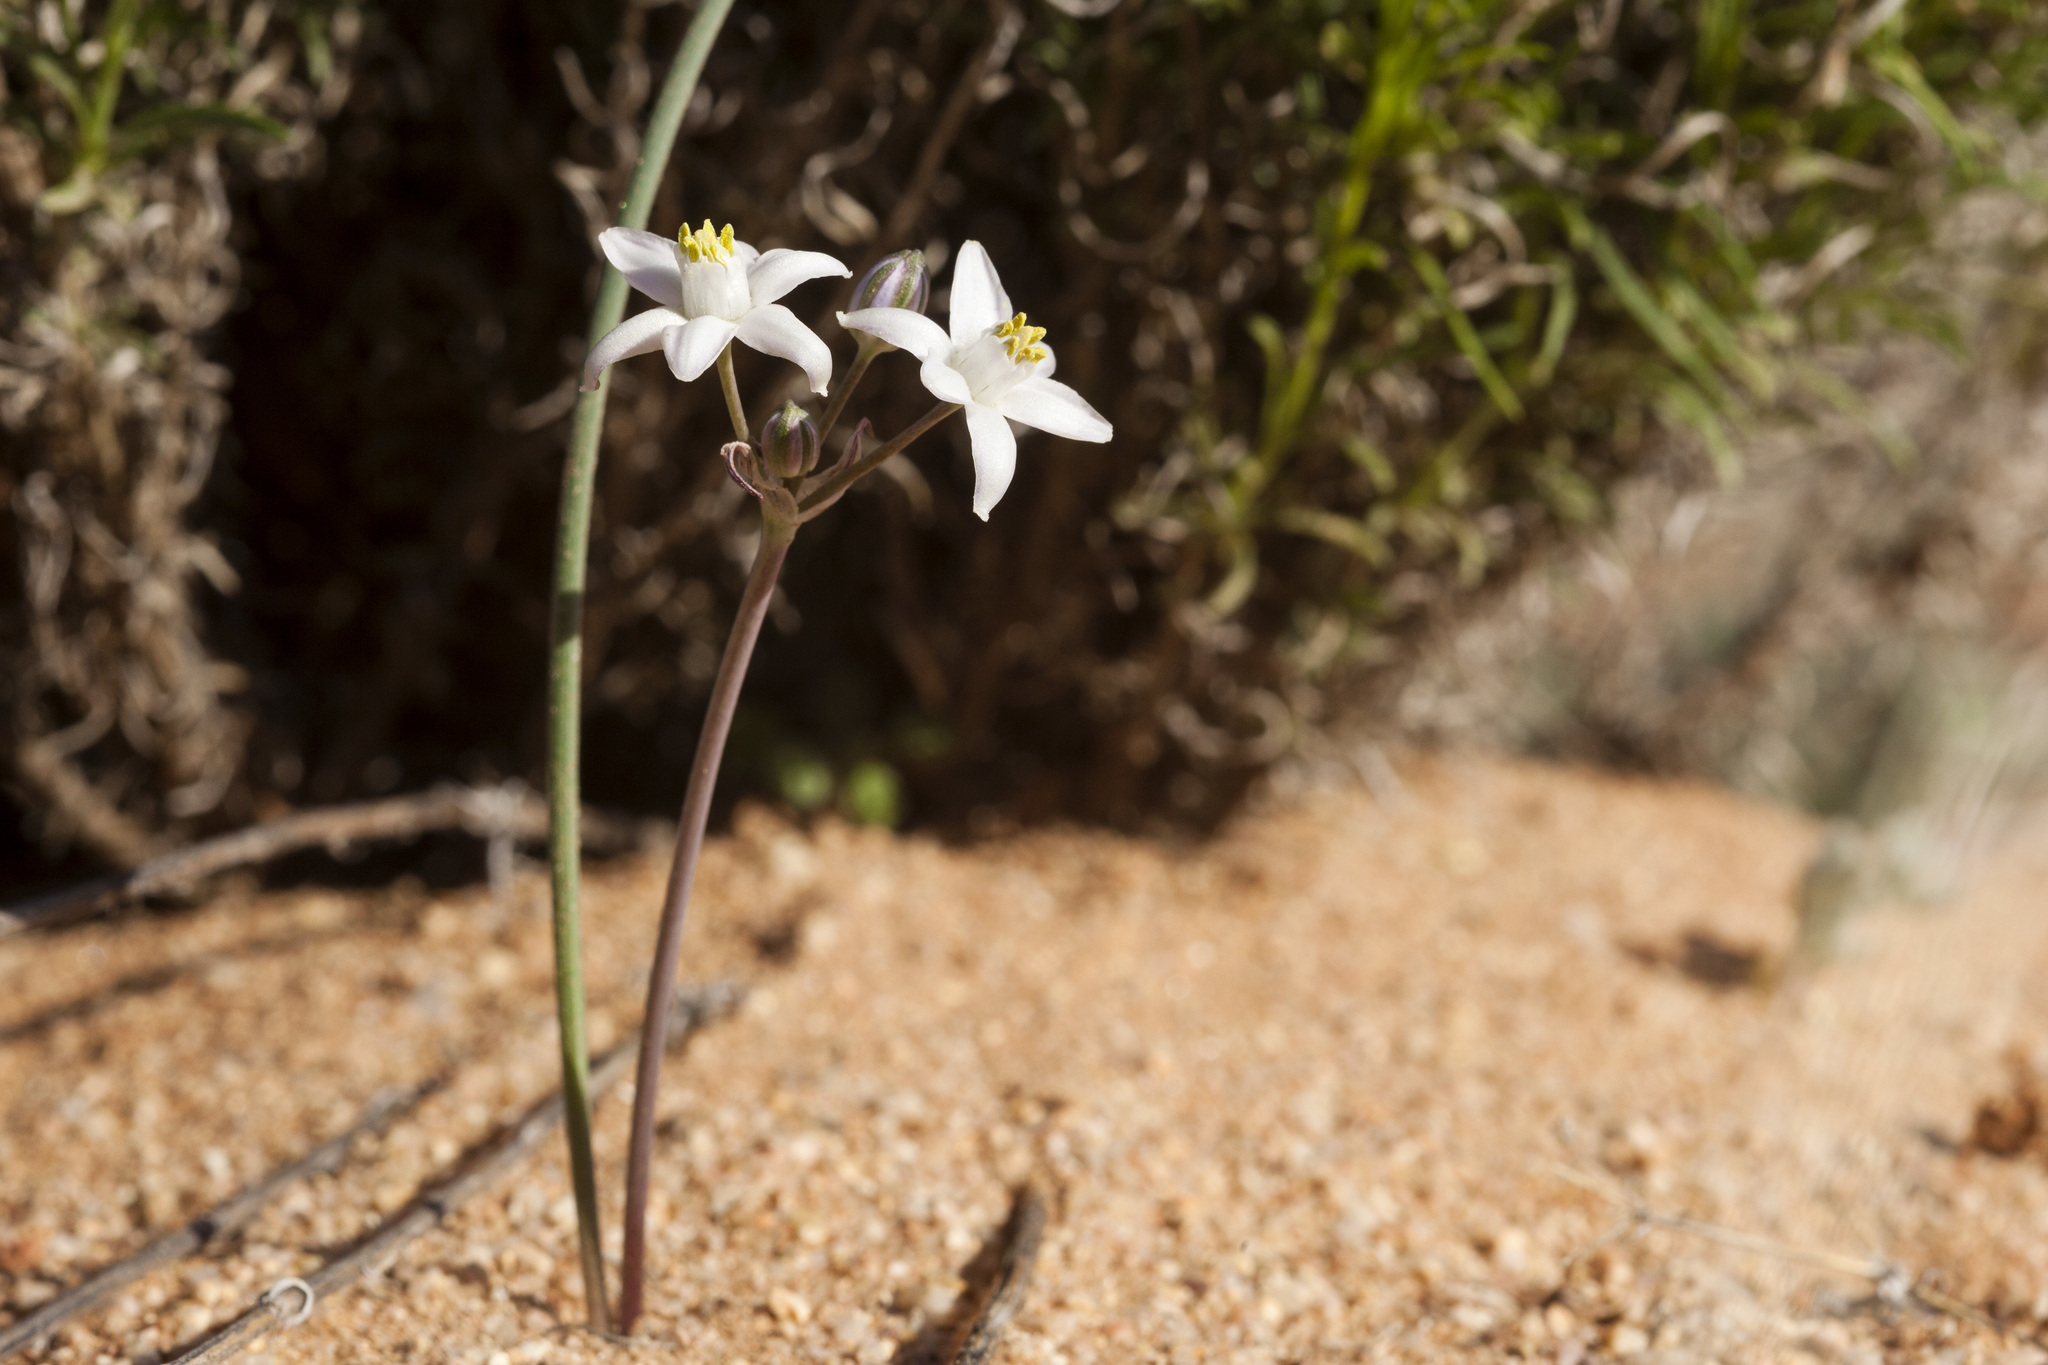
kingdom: Plantae
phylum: Tracheophyta
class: Liliopsida
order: Asparagales
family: Asparagaceae
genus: Muilla
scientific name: Muilla lordsburgana
